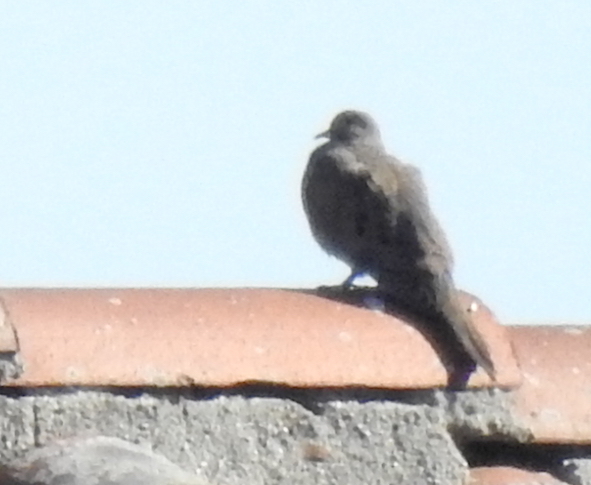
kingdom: Animalia
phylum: Chordata
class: Aves
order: Columbiformes
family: Columbidae
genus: Zenaida
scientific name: Zenaida macroura
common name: Mourning dove
